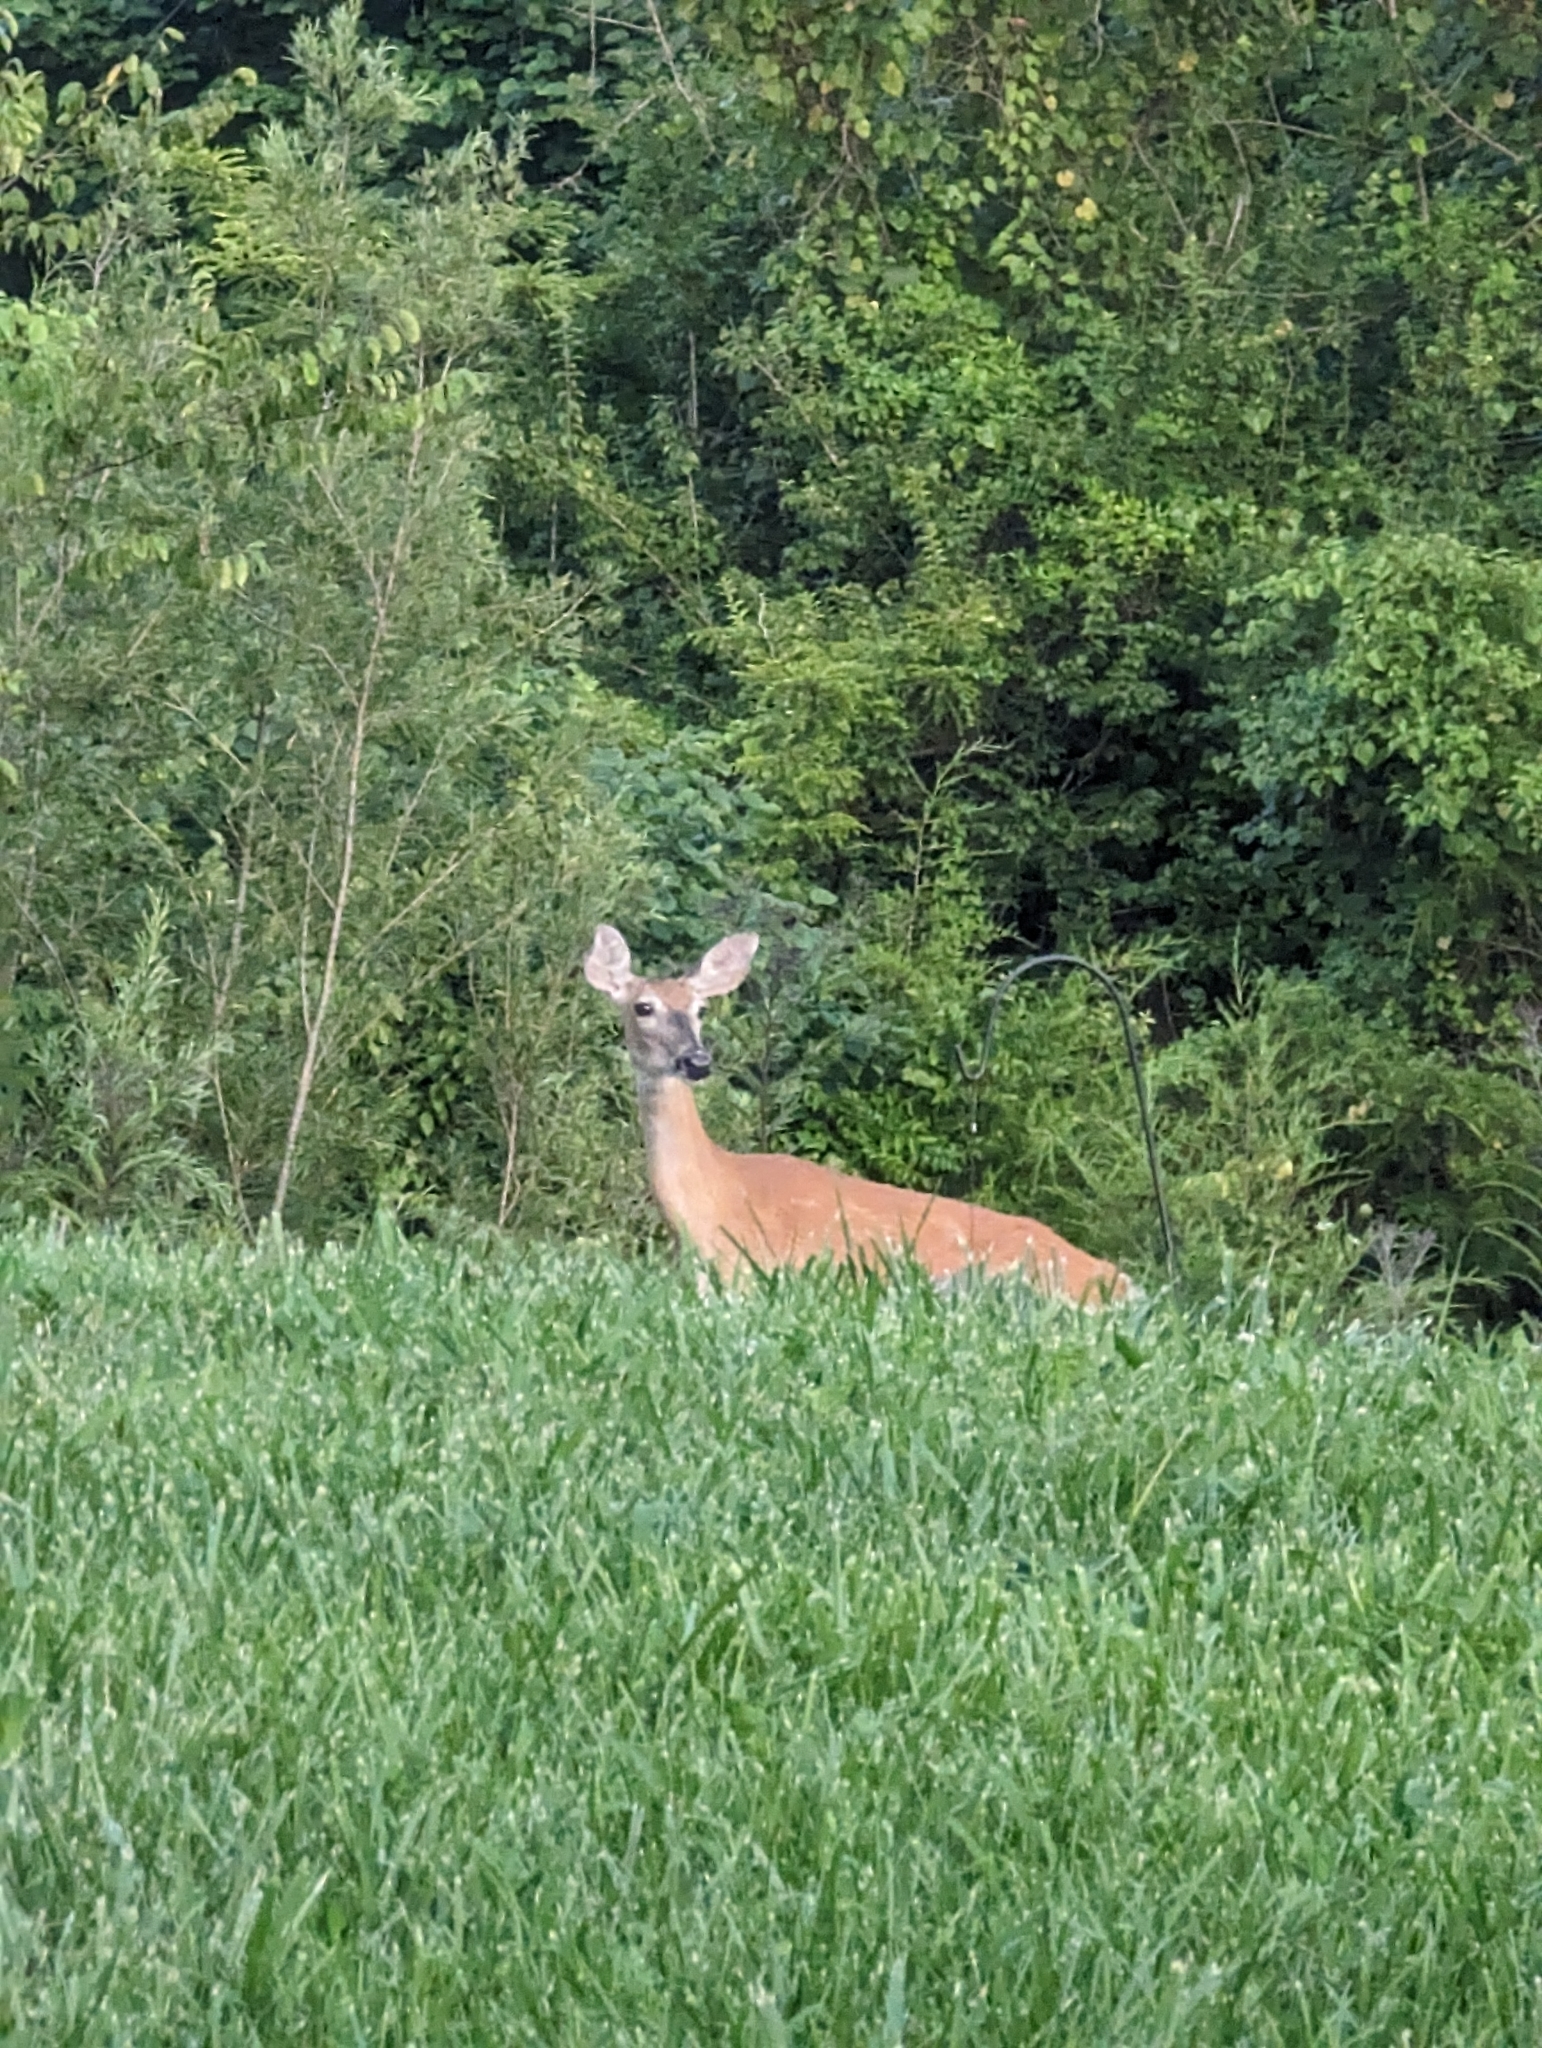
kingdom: Animalia
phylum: Chordata
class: Mammalia
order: Artiodactyla
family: Cervidae
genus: Odocoileus
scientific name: Odocoileus virginianus
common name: White-tailed deer
